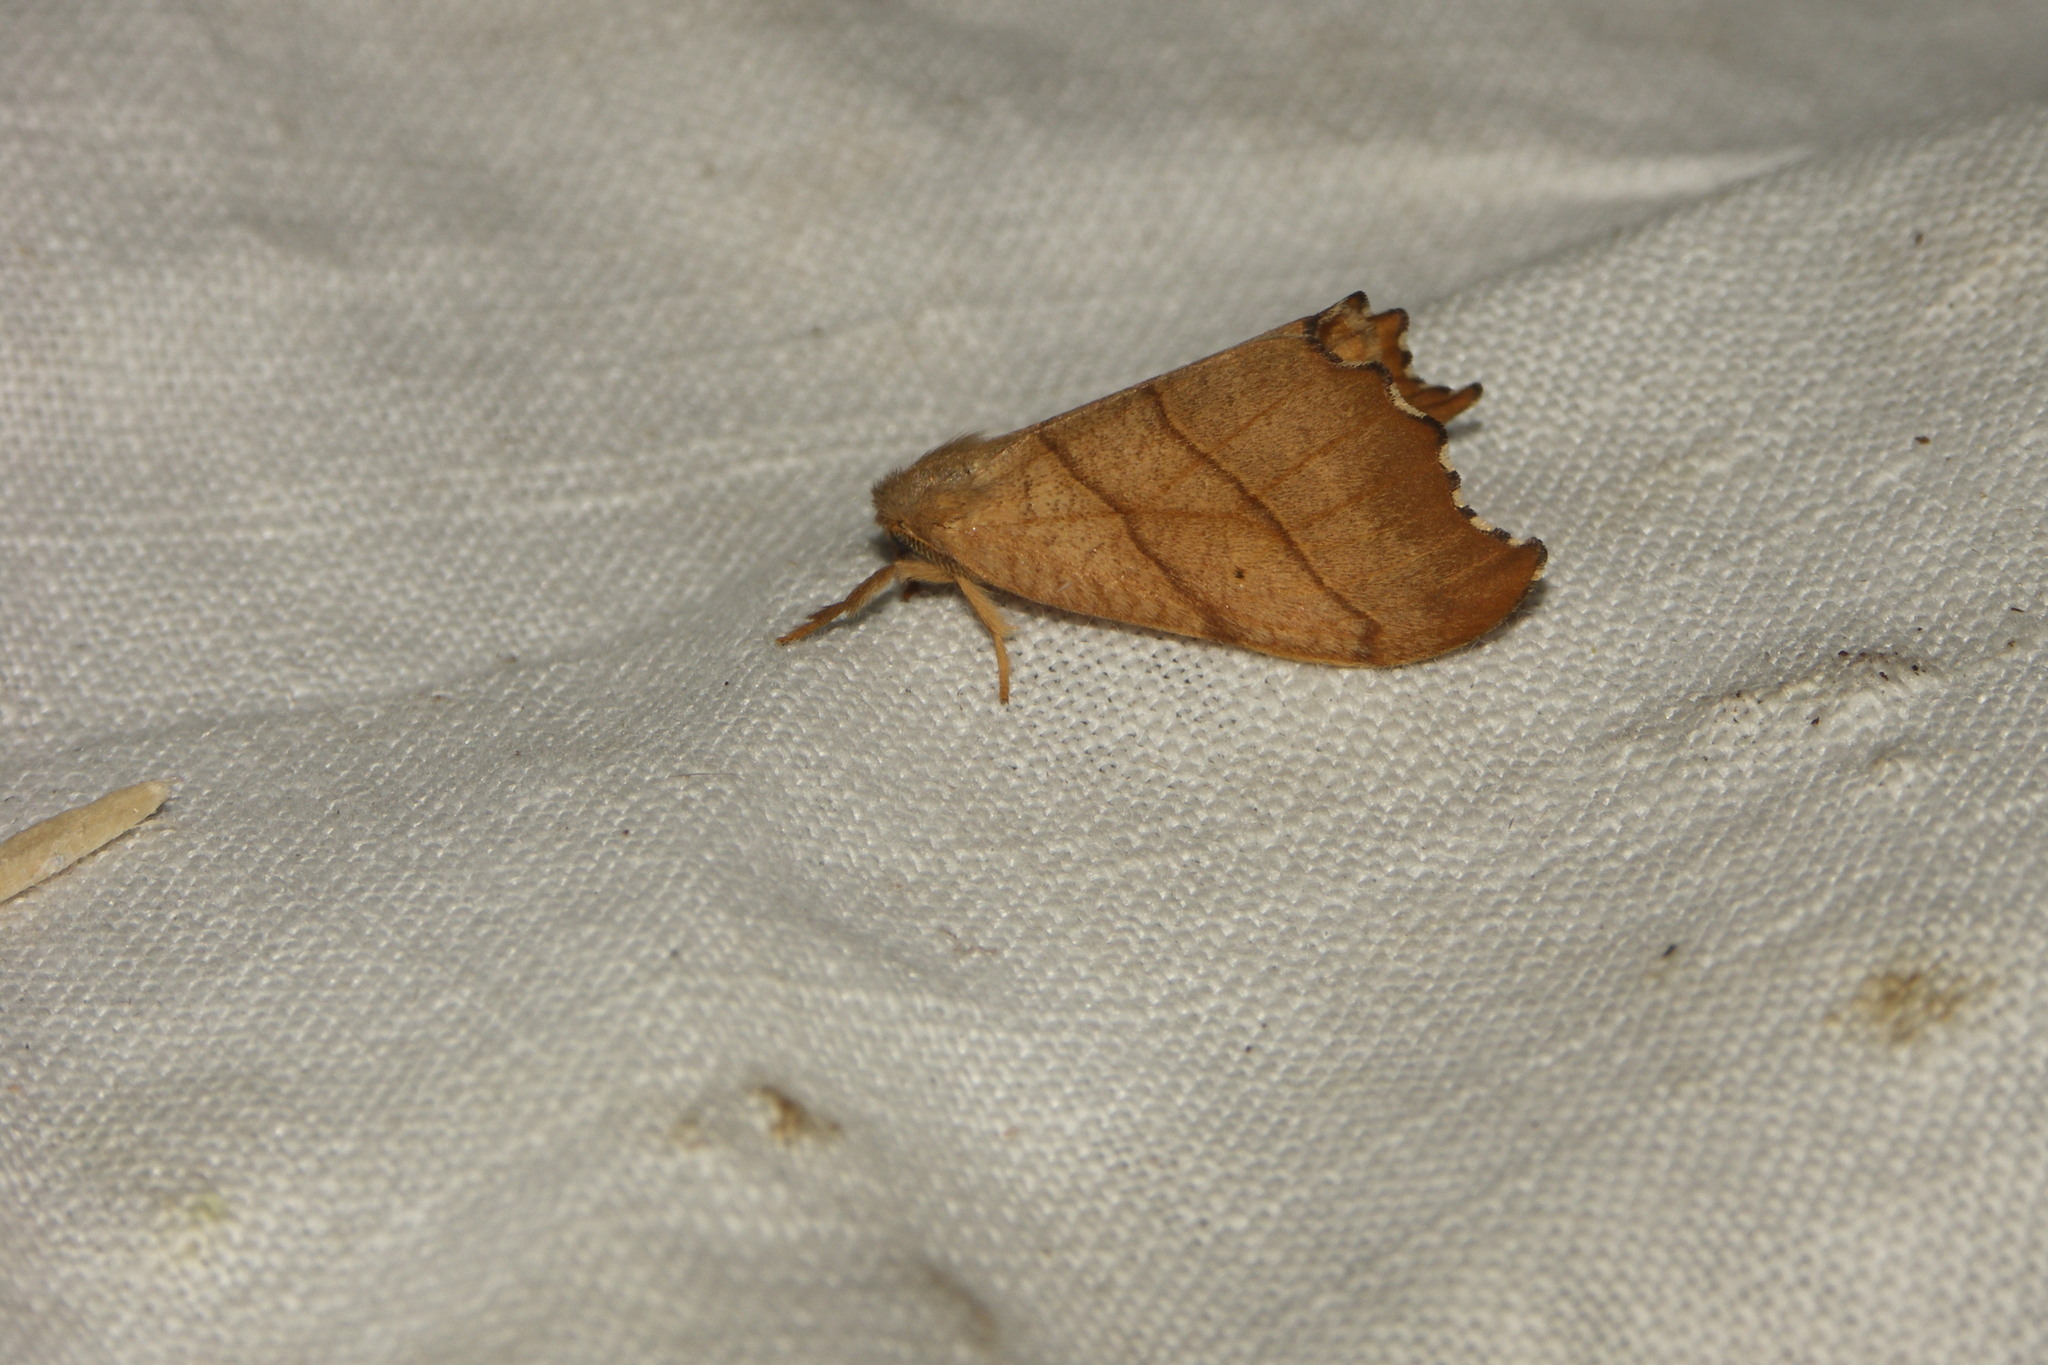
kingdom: Animalia
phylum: Arthropoda
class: Insecta
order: Lepidoptera
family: Drepanidae
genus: Falcaria
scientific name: Falcaria lacertinaria
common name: Scalloped hook-tip
